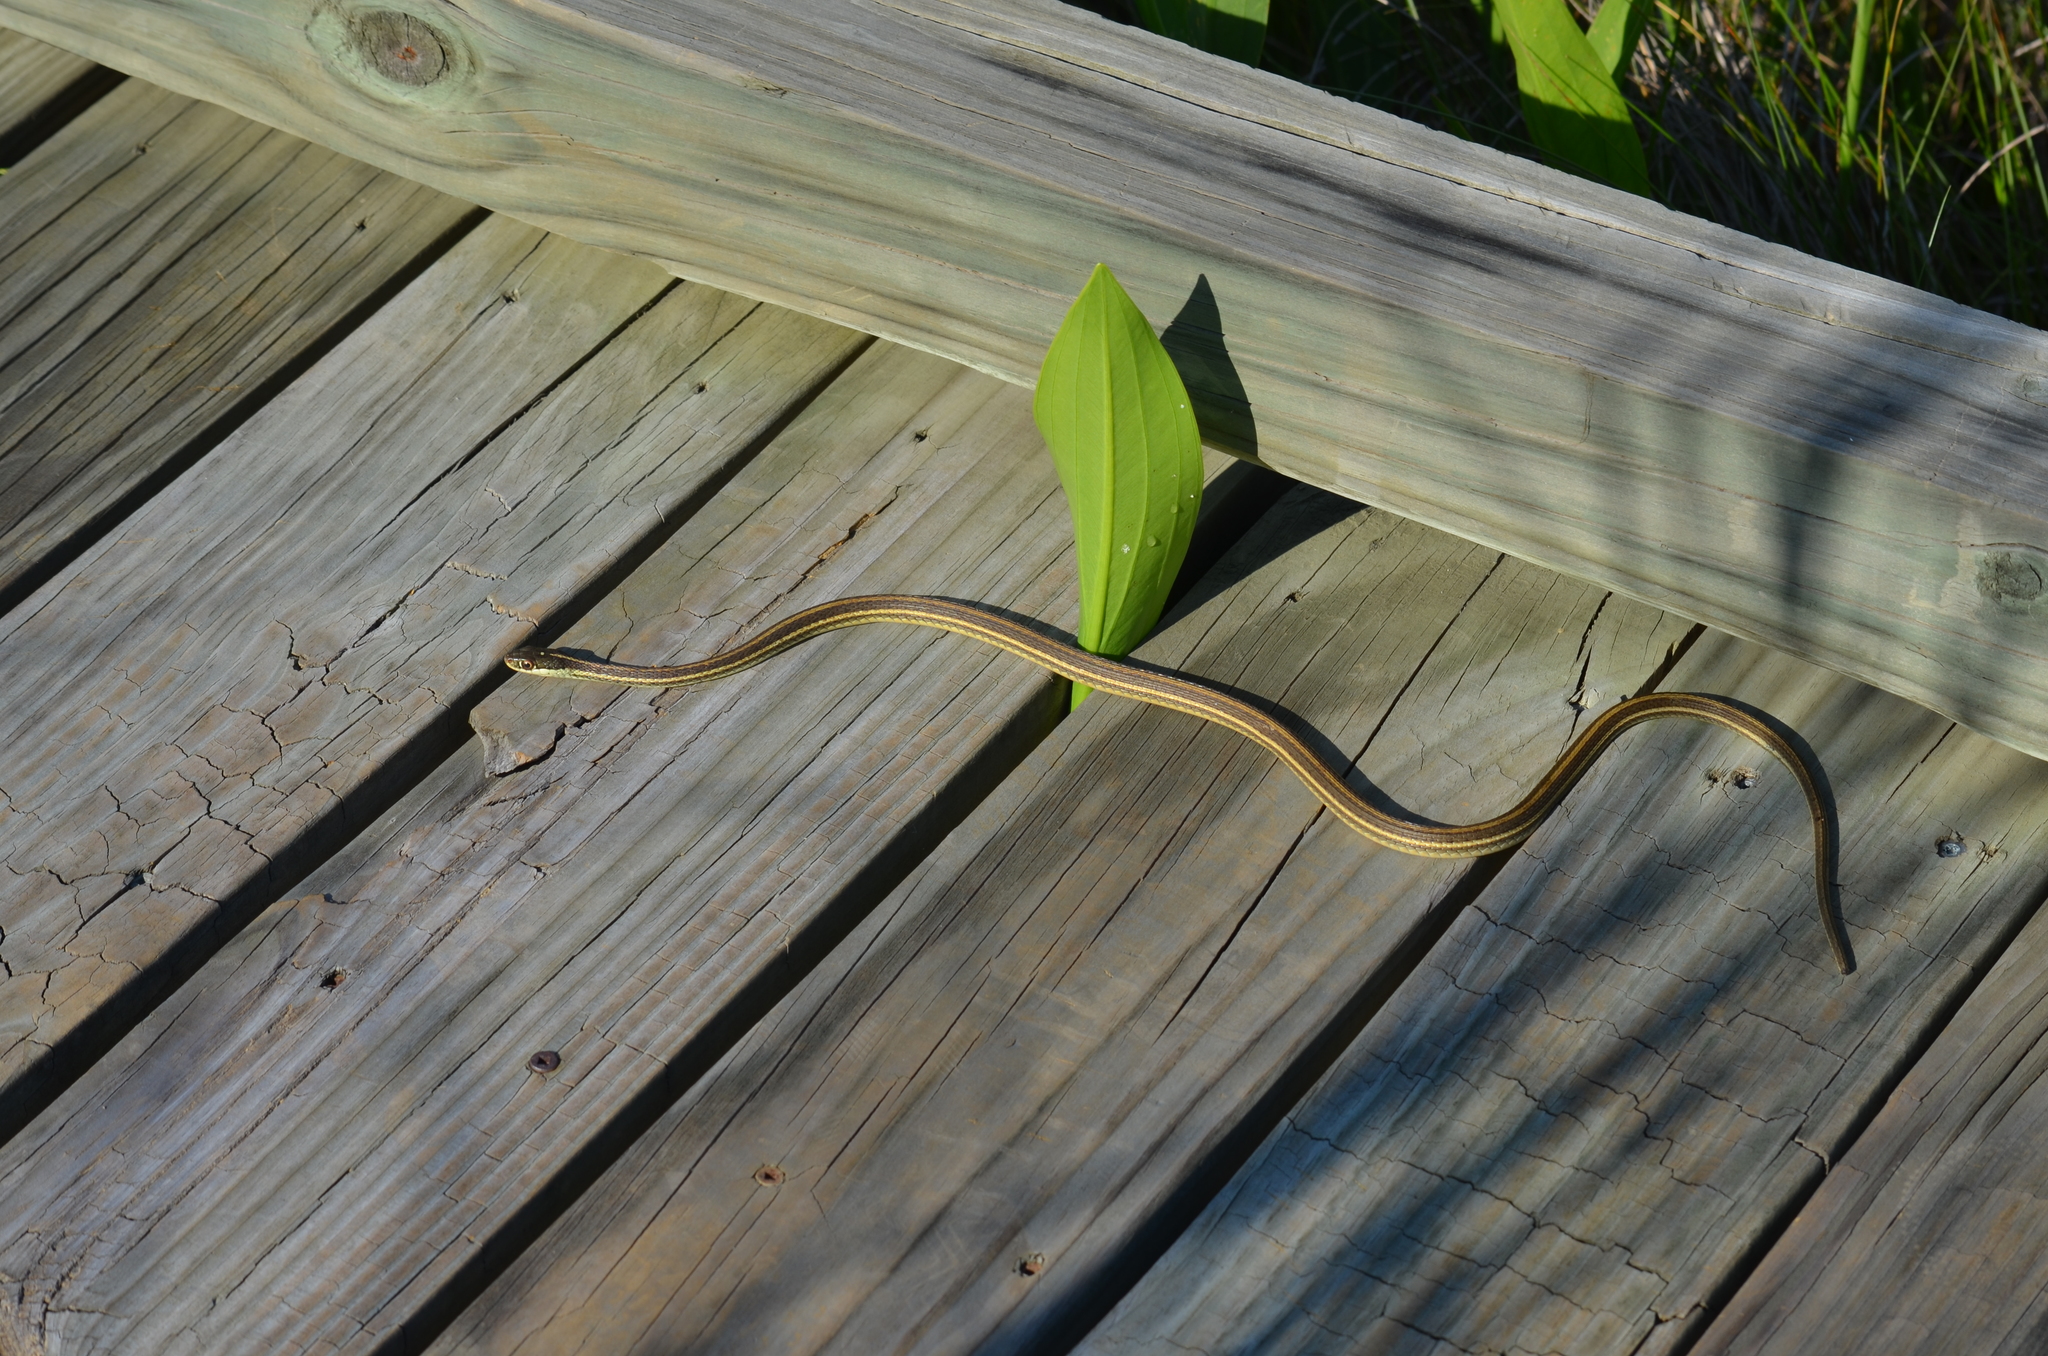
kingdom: Animalia
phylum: Chordata
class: Squamata
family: Colubridae
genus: Thamnophis
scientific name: Thamnophis proximus
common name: Western ribbon snake
